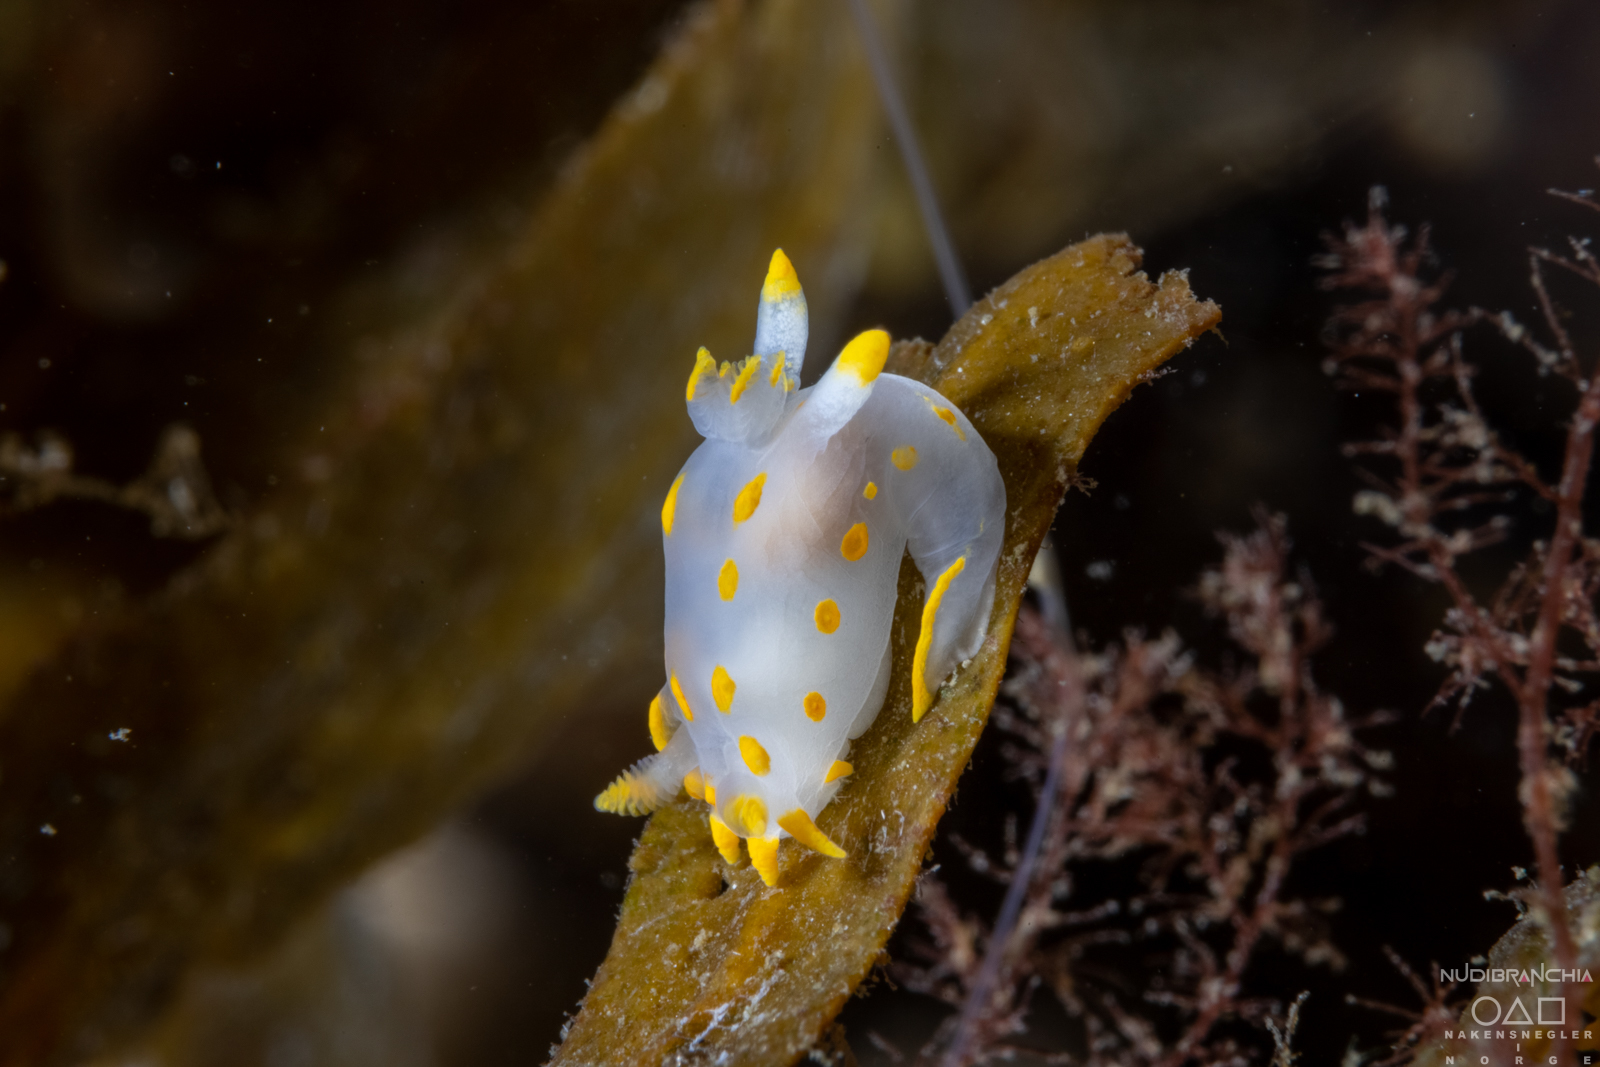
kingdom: Animalia
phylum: Mollusca
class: Gastropoda
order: Nudibranchia
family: Polyceridae
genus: Polycera
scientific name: Polycera quadrilineata
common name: Four-striped polycera
